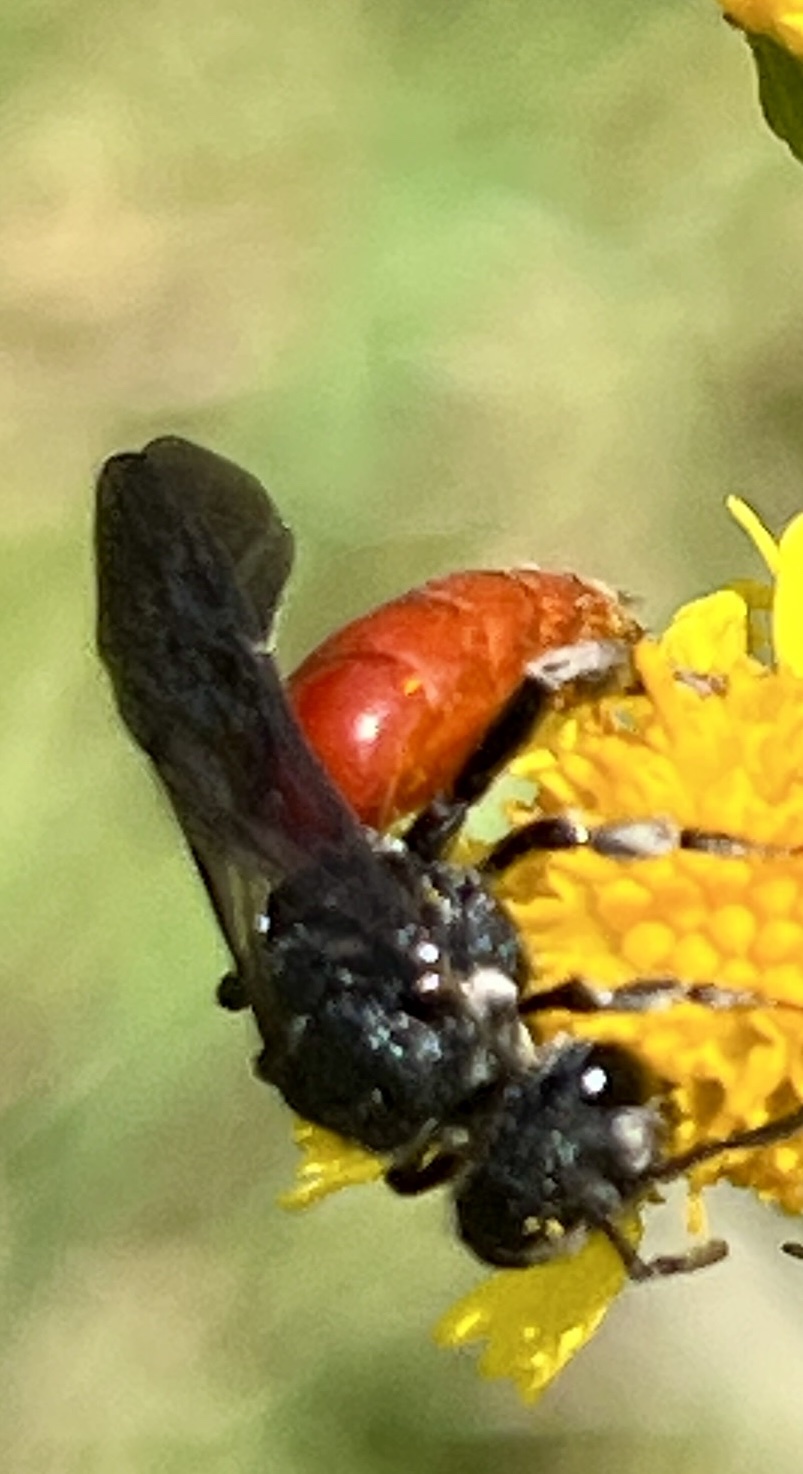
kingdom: Animalia
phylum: Arthropoda
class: Insecta
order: Hymenoptera
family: Halictidae
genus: Sphecodes
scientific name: Sphecodes albilabris
